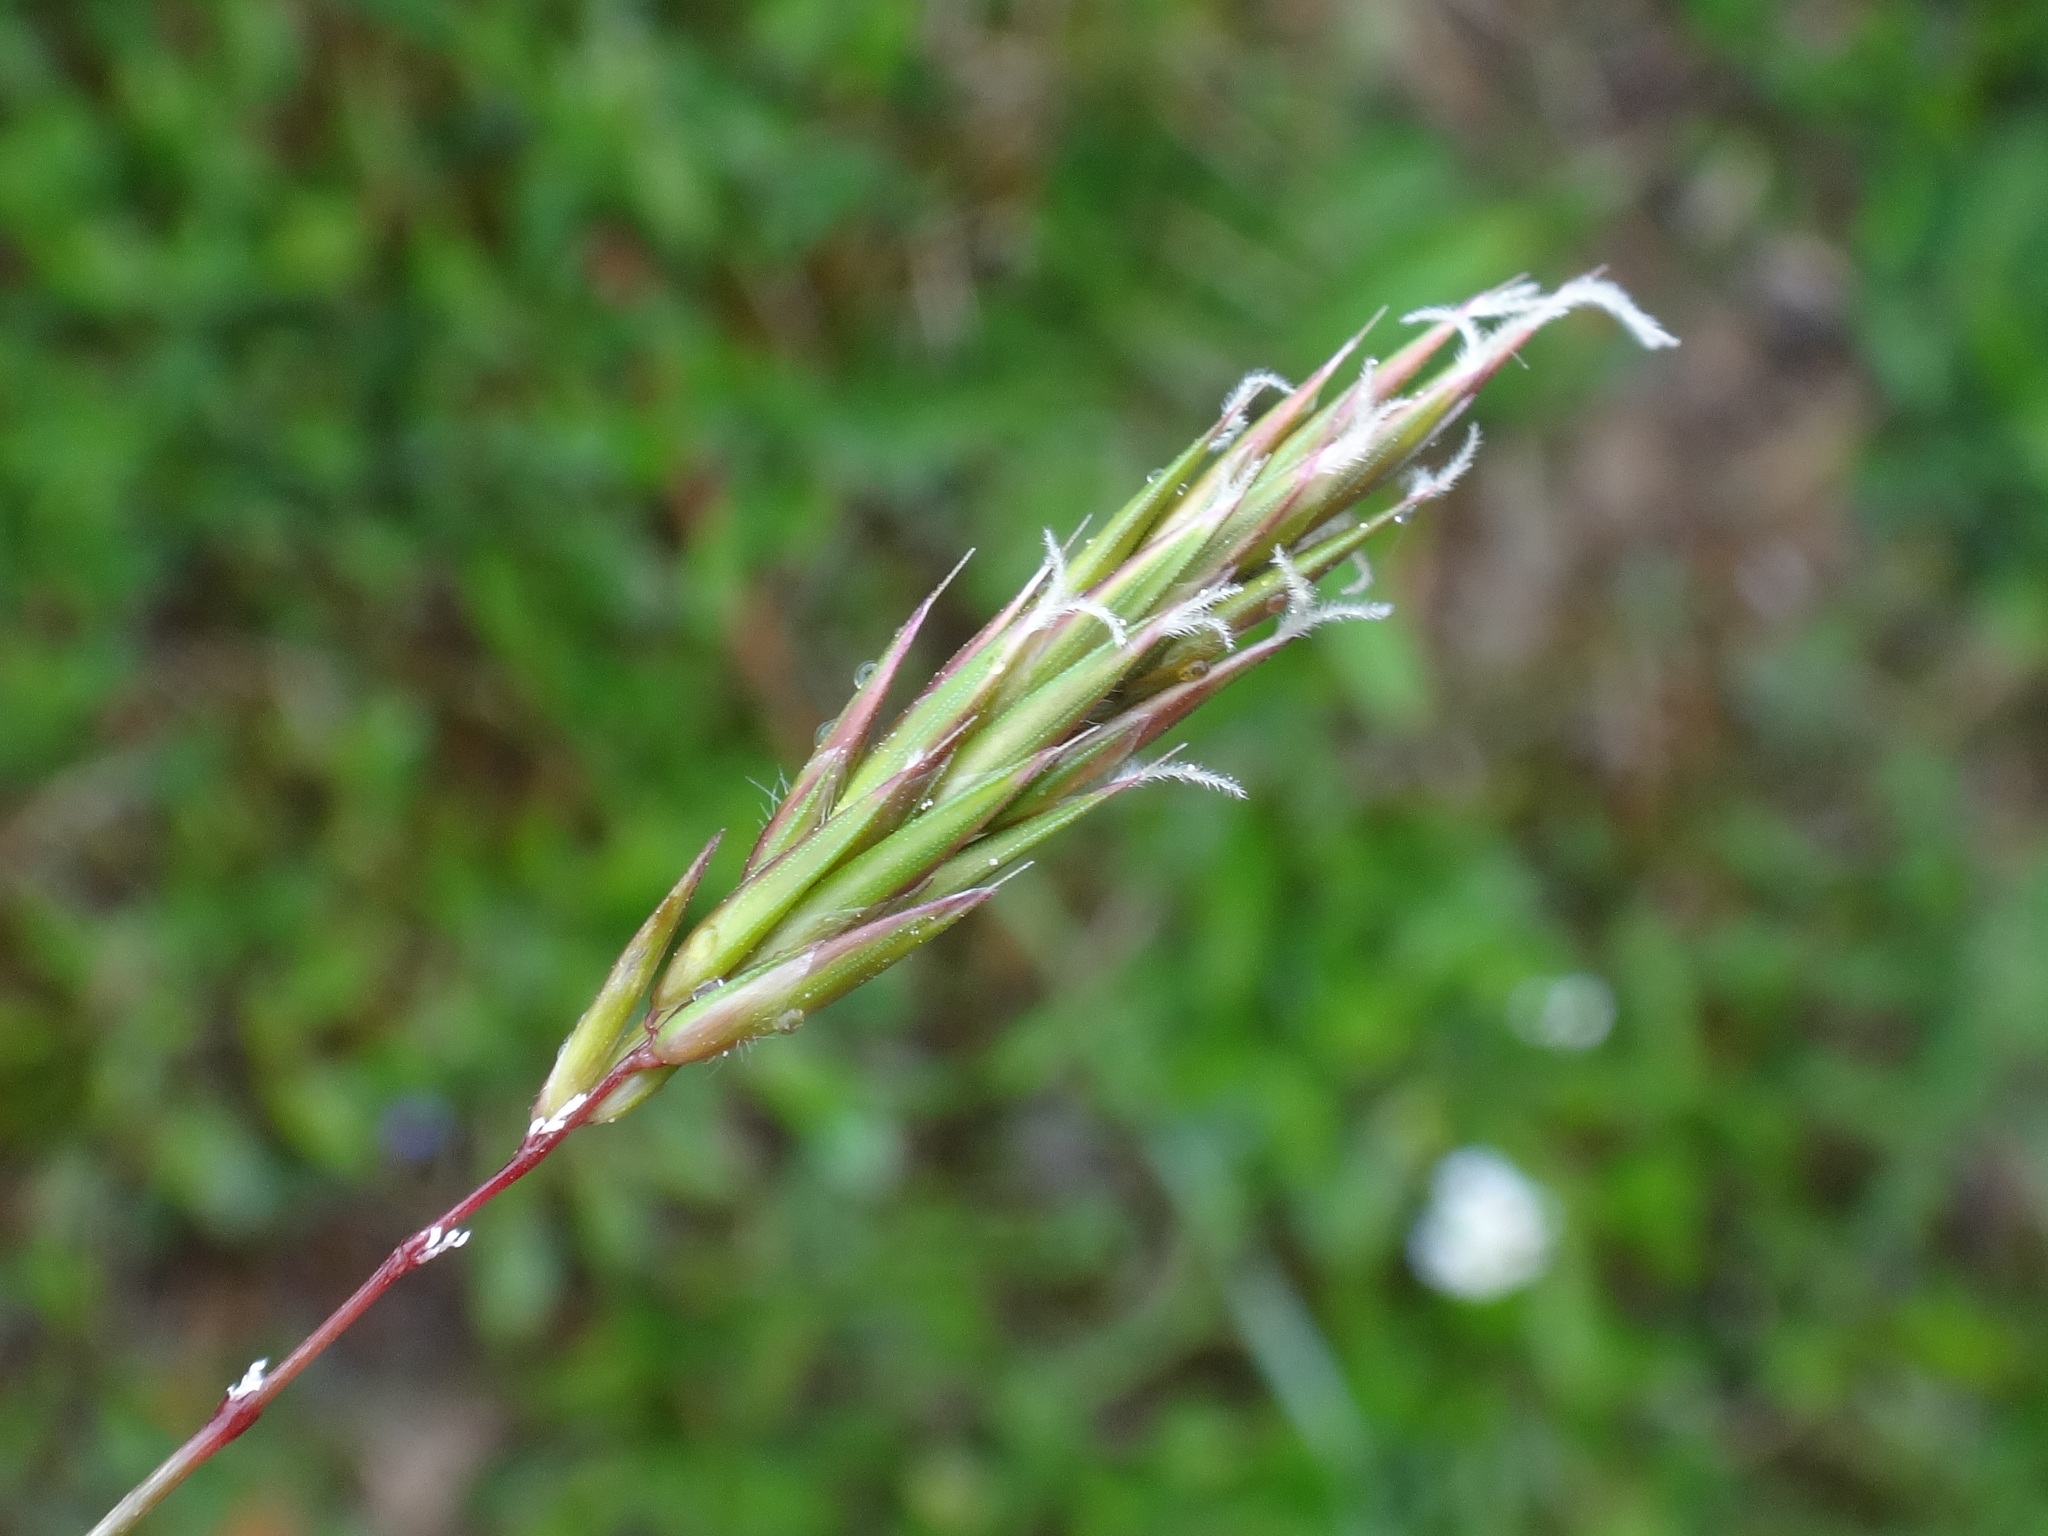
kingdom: Plantae
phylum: Tracheophyta
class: Liliopsida
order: Poales
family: Poaceae
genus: Anthoxanthum
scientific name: Anthoxanthum odoratum
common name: Sweet vernalgrass
